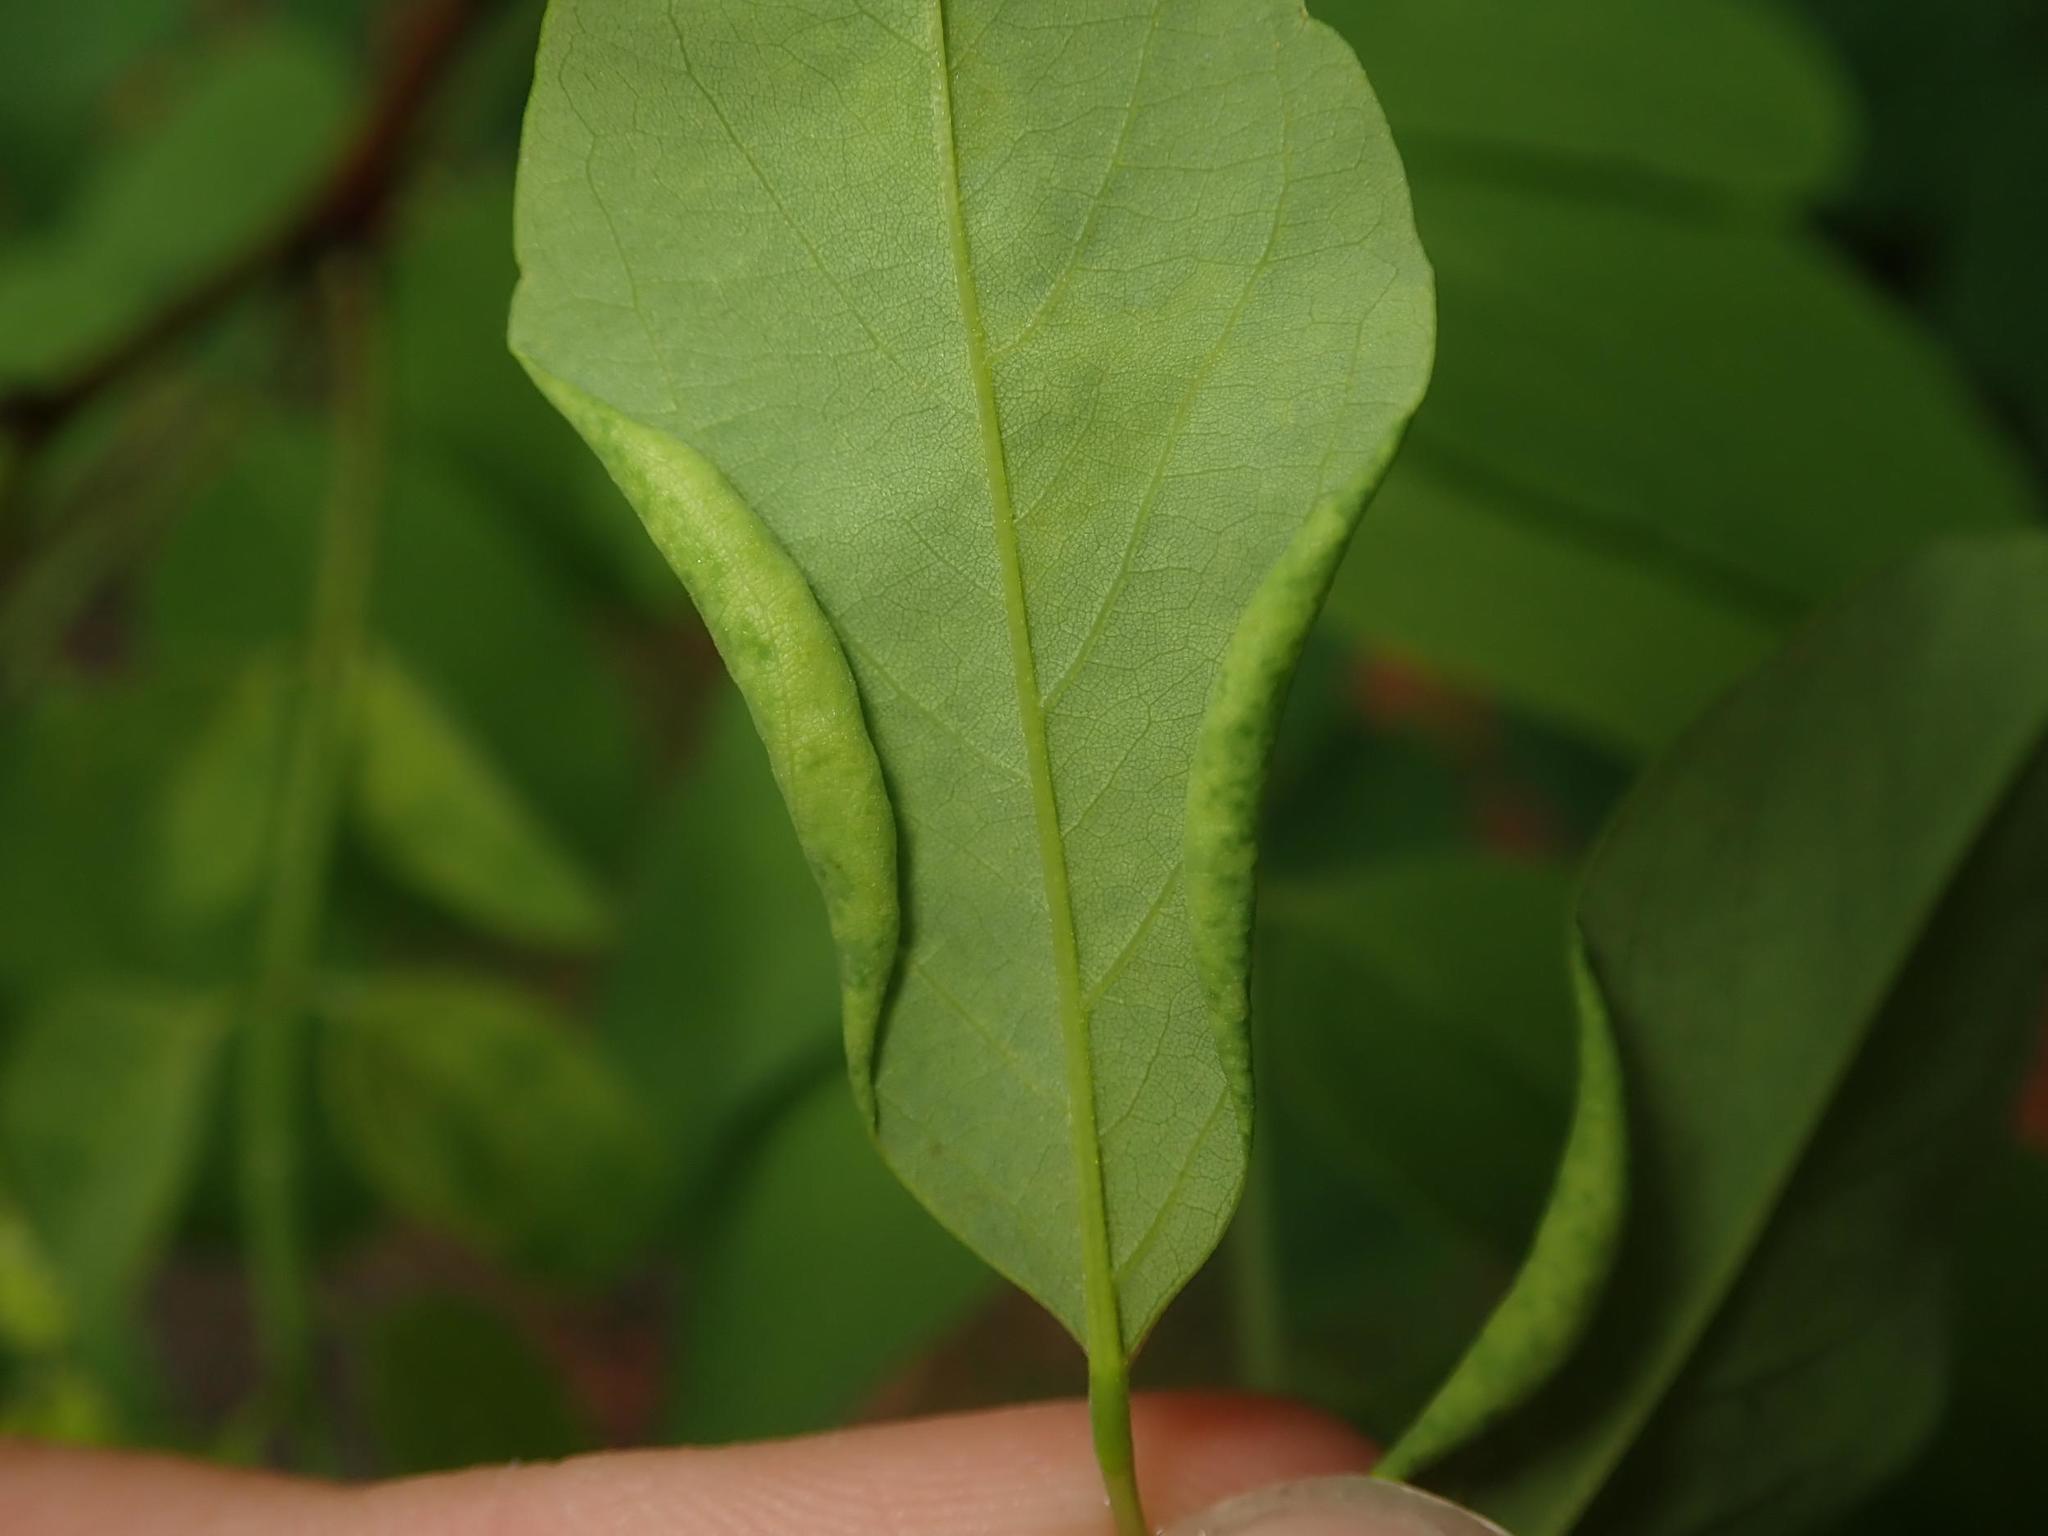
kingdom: Animalia
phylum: Arthropoda
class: Insecta
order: Diptera
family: Cecidomyiidae
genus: Obolodiplosis
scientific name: Obolodiplosis robiniae
